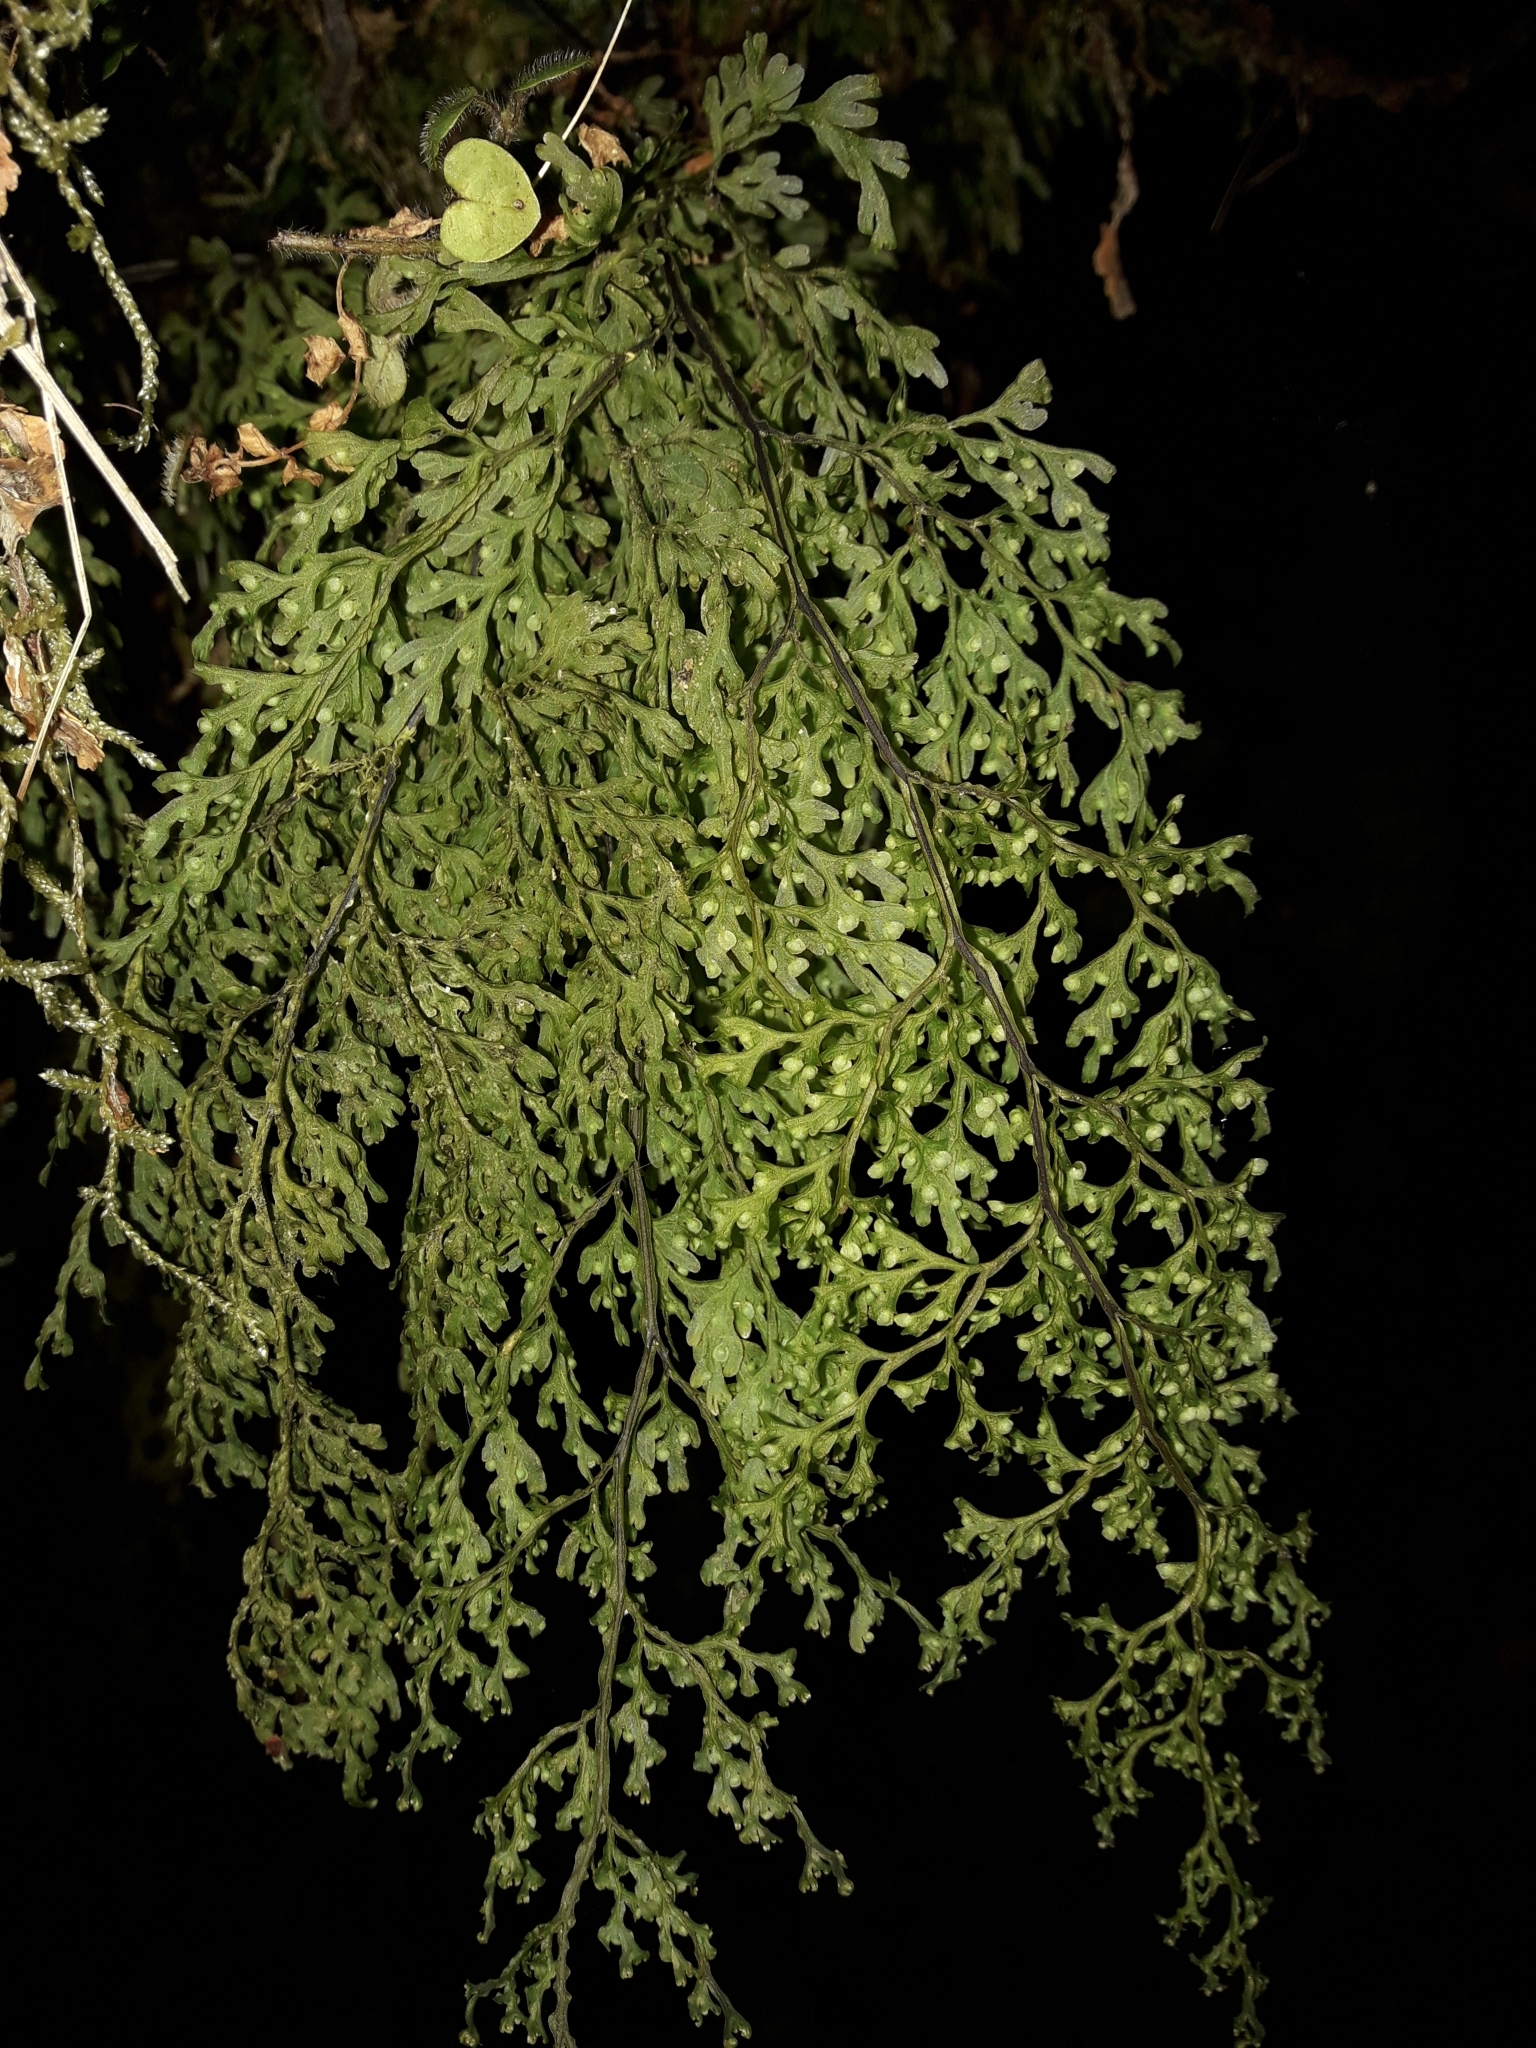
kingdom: Plantae
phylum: Tracheophyta
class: Polypodiopsida
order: Hymenophyllales
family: Hymenophyllaceae
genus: Hymenophyllum
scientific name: Hymenophyllum pulcherrimum
